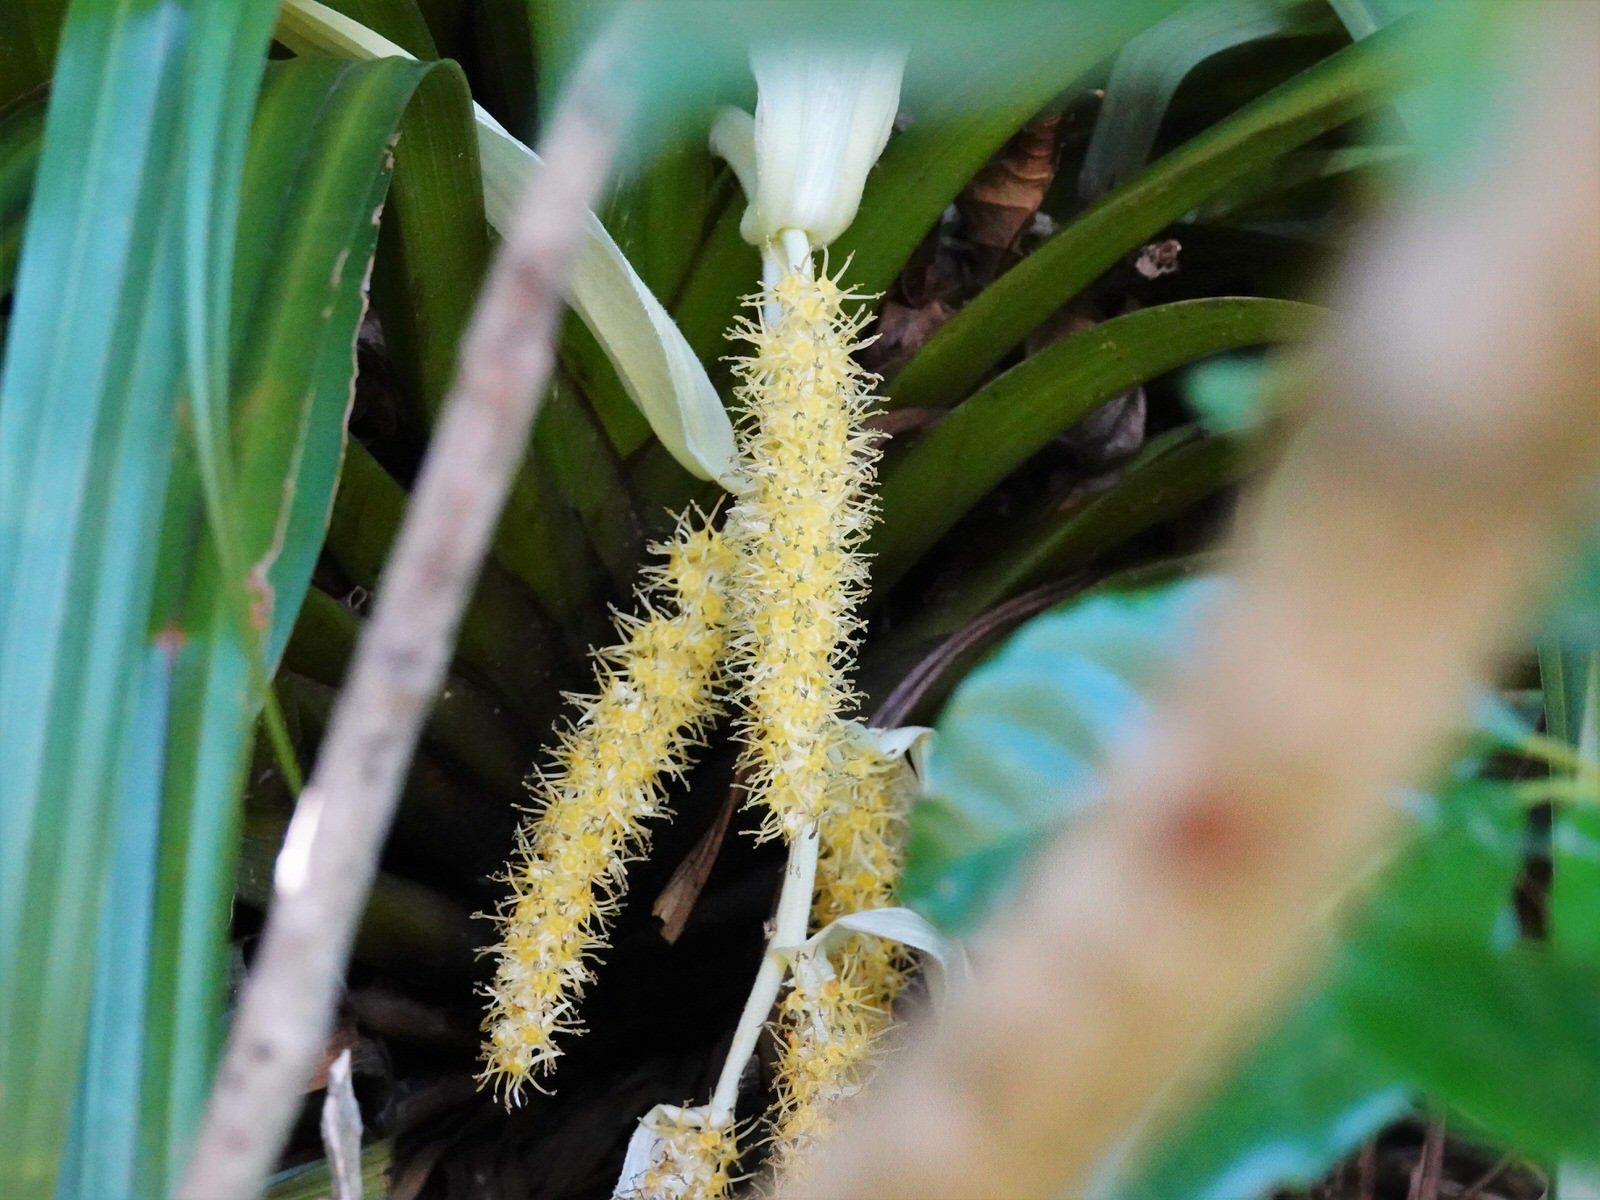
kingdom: Plantae
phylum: Tracheophyta
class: Liliopsida
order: Asparagales
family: Asteliaceae
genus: Astelia
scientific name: Astelia hastata
